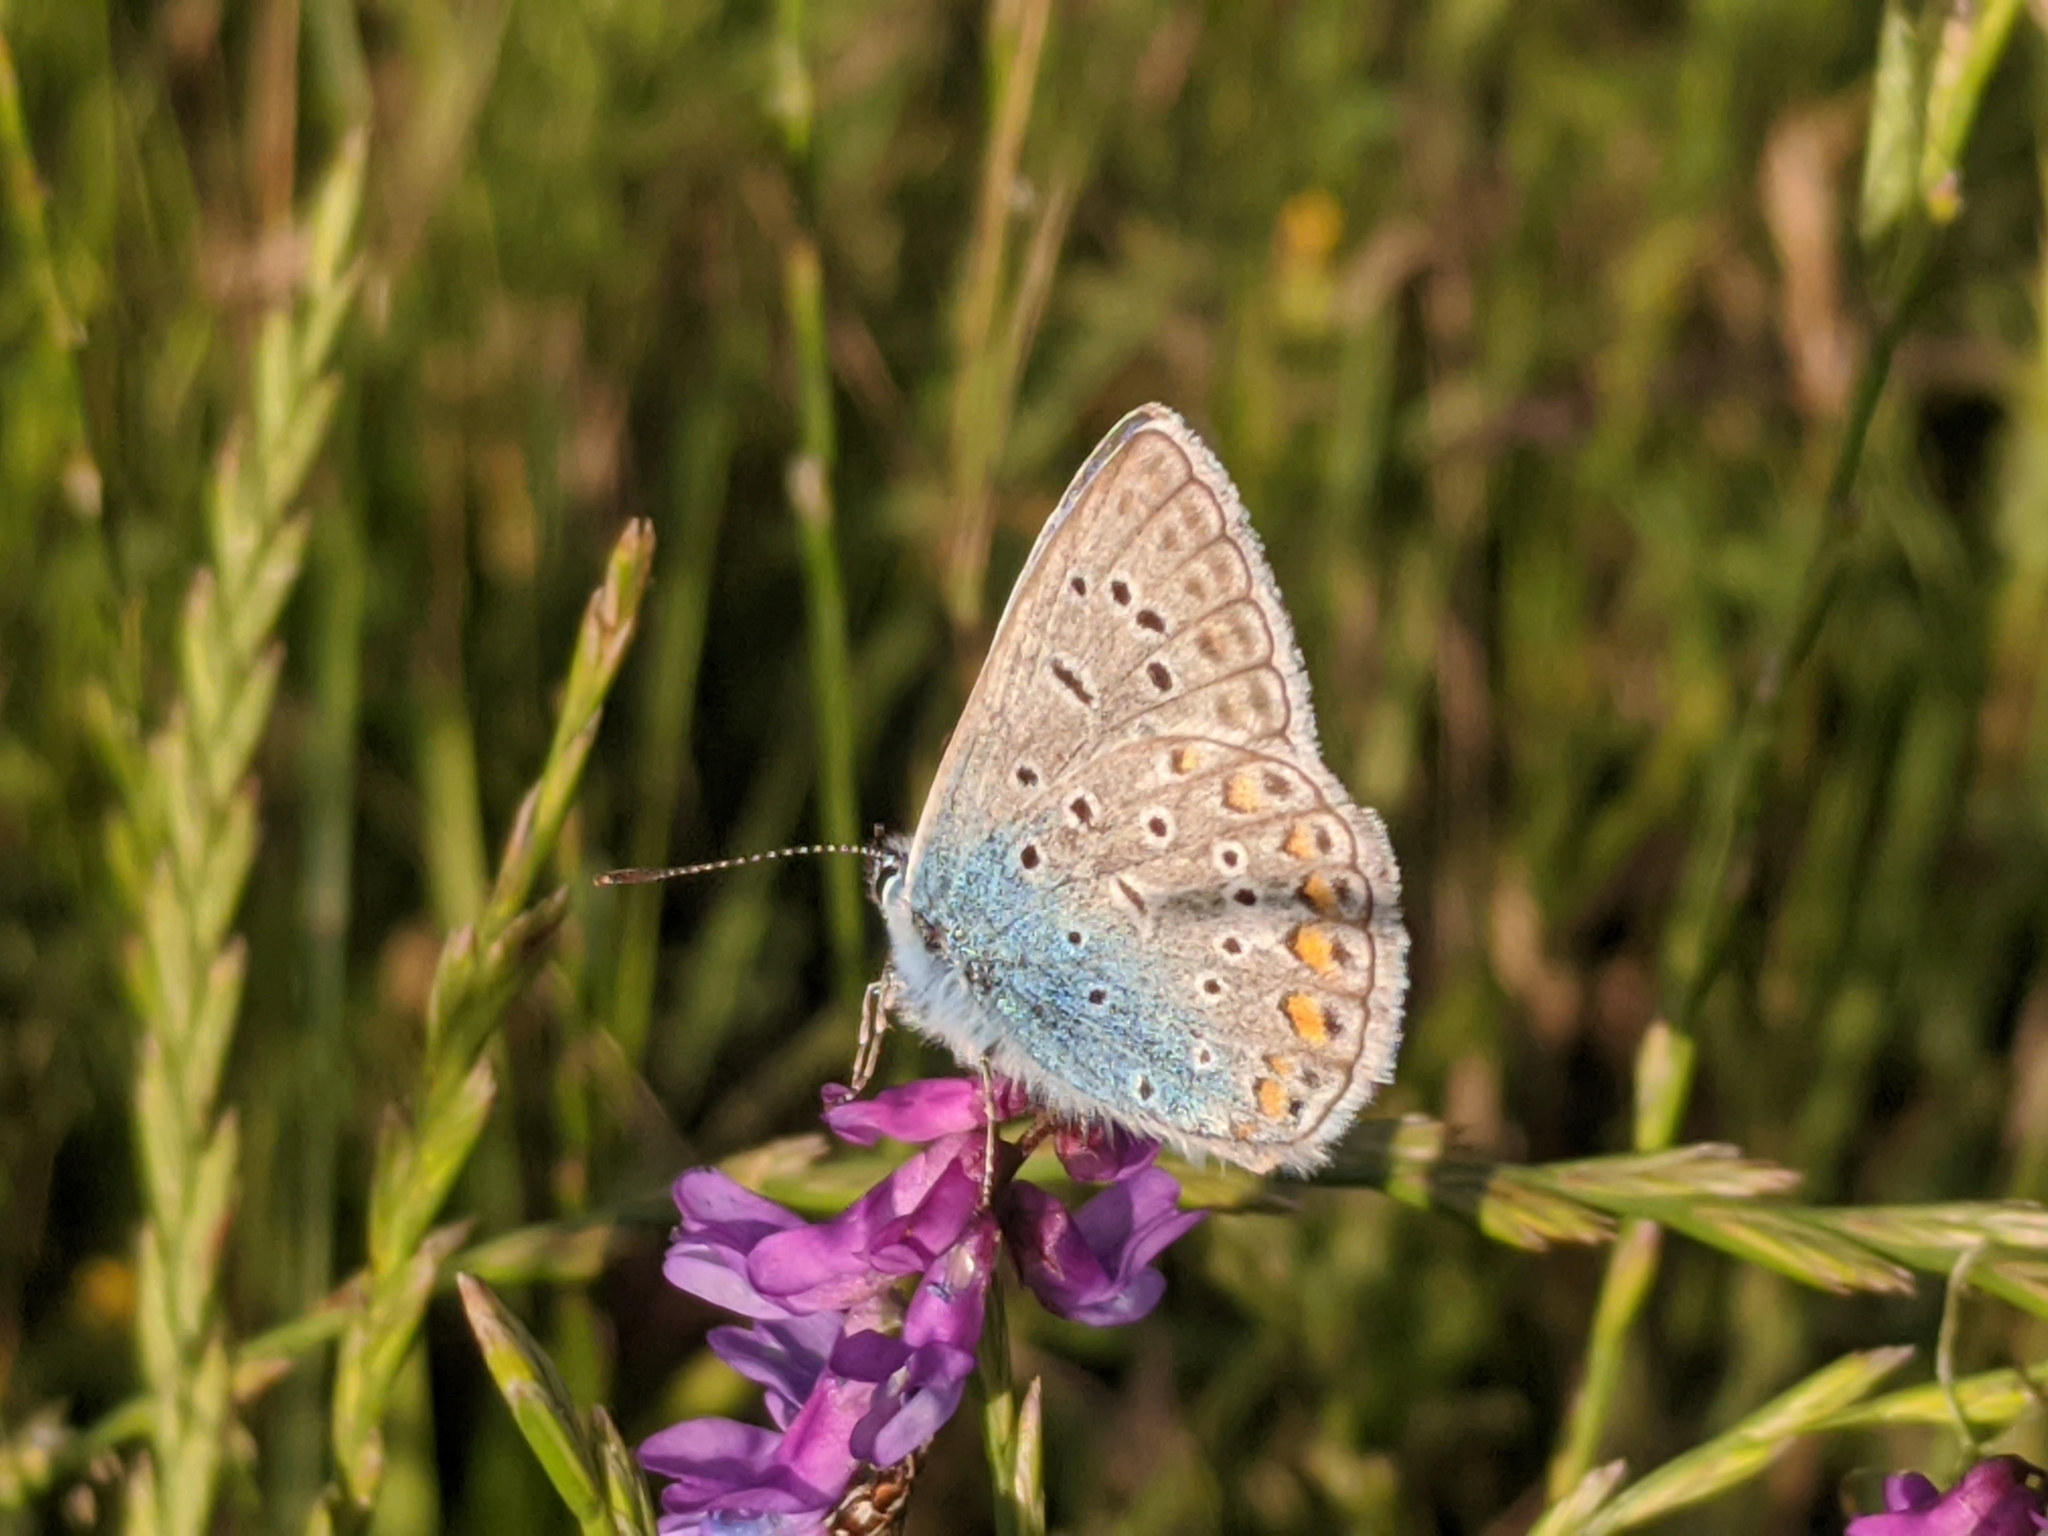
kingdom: Animalia
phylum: Arthropoda
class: Insecta
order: Lepidoptera
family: Lycaenidae
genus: Polyommatus
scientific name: Polyommatus icarus
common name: Common blue
